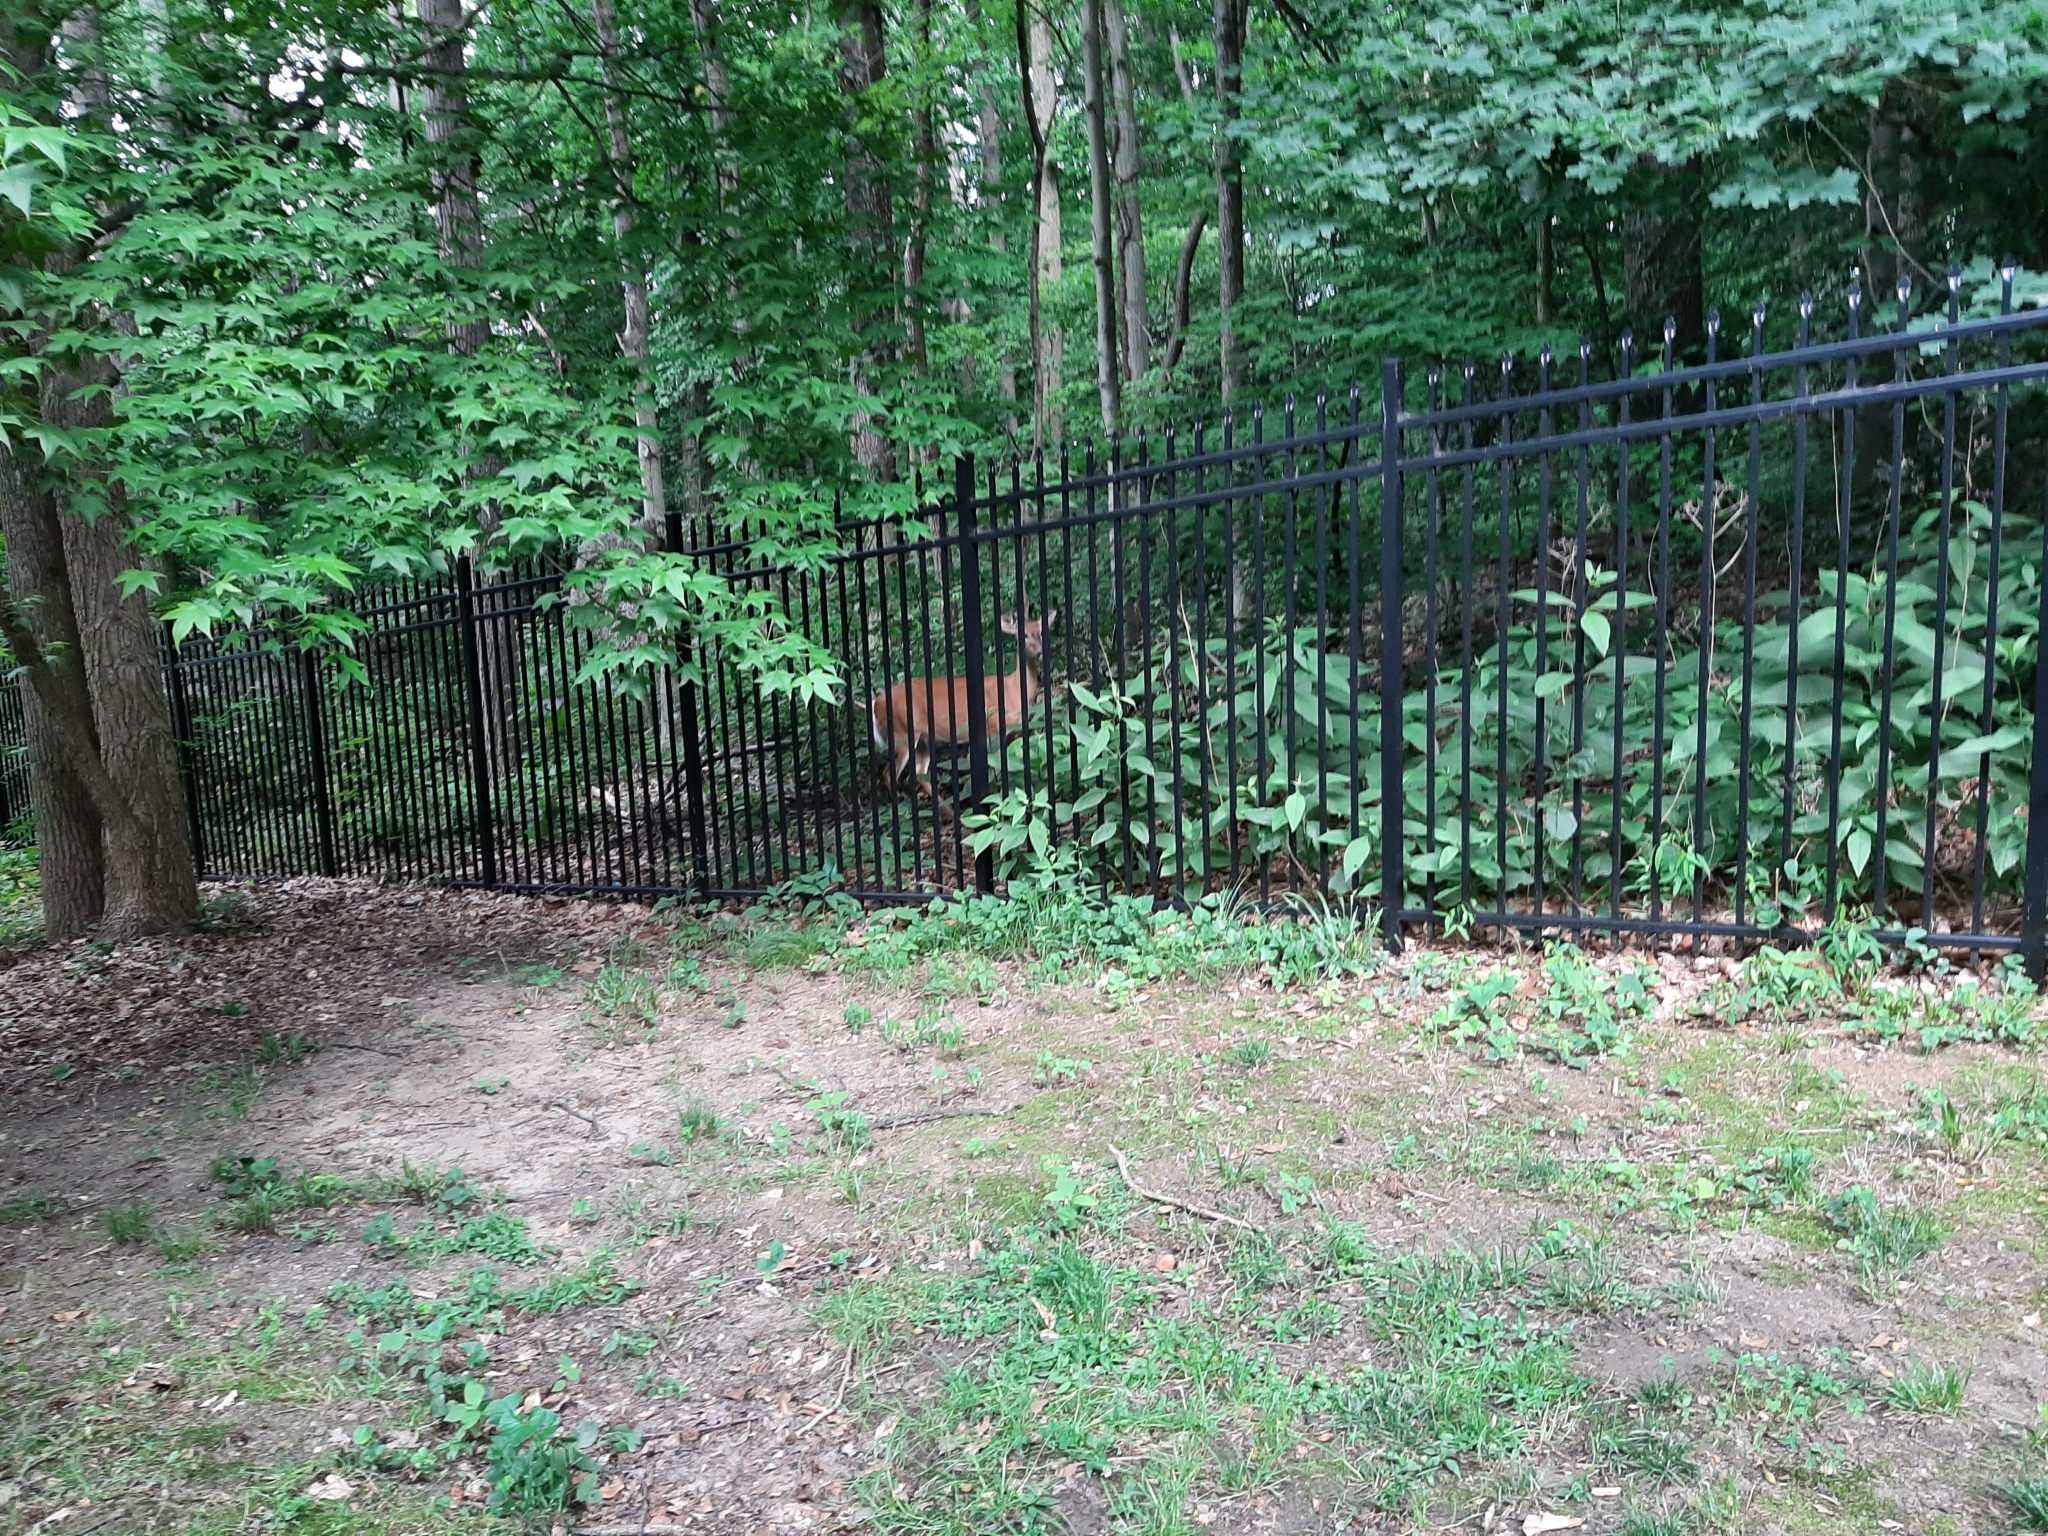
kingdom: Animalia
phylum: Chordata
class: Mammalia
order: Artiodactyla
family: Cervidae
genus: Odocoileus
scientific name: Odocoileus virginianus
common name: White-tailed deer
